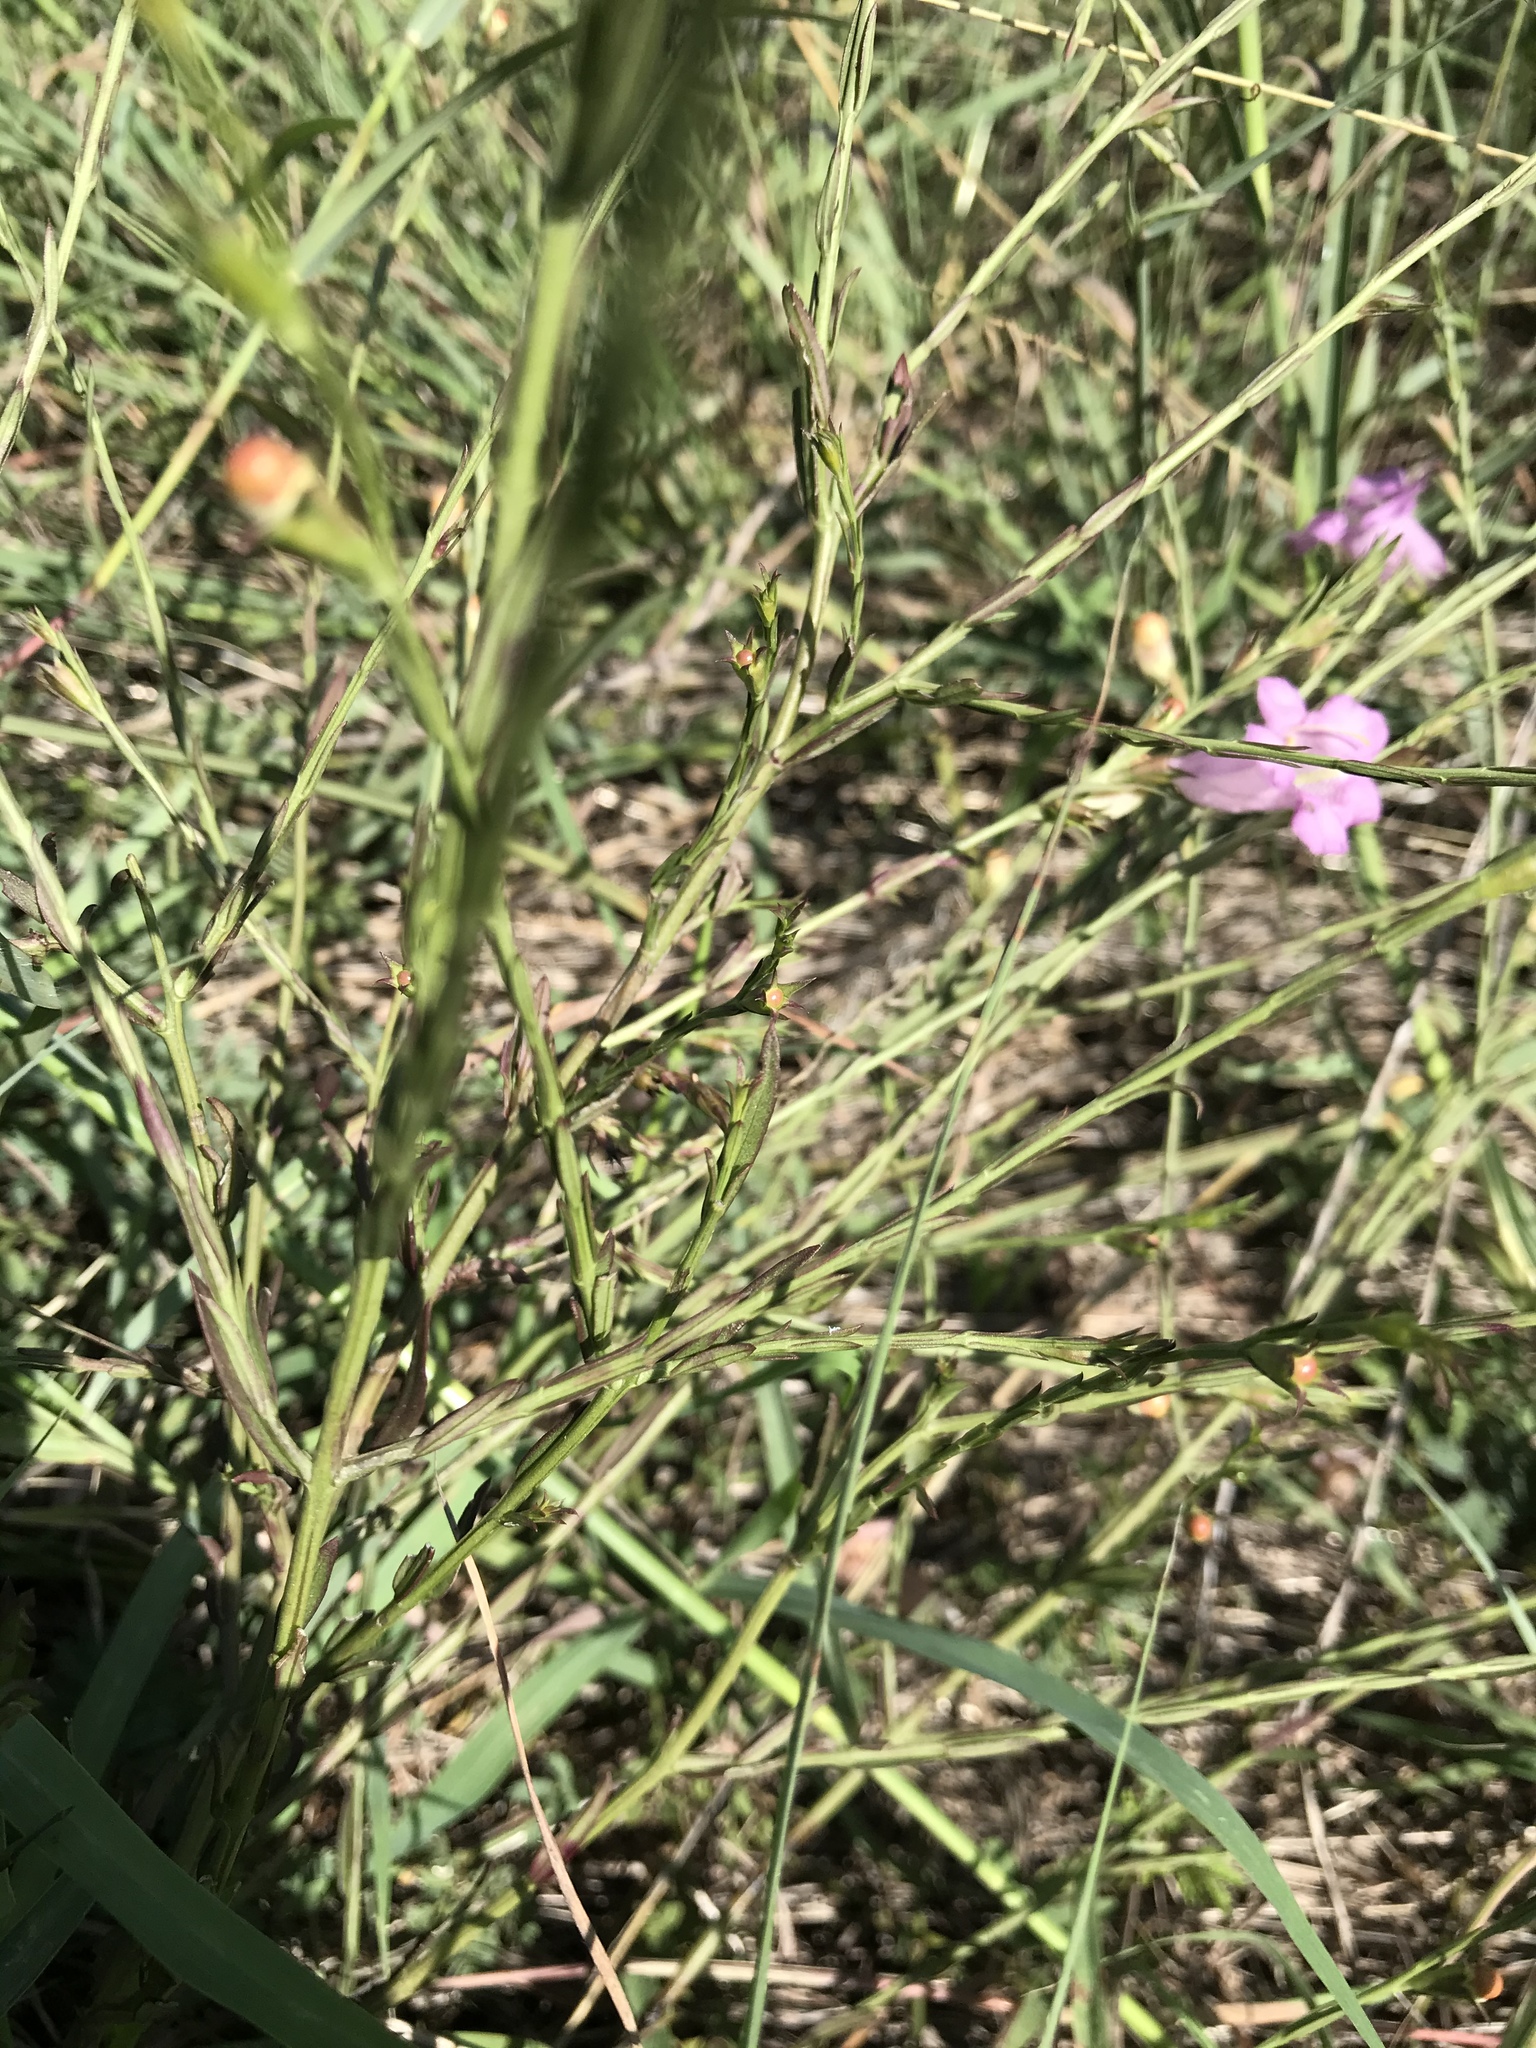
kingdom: Plantae
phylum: Tracheophyta
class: Magnoliopsida
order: Lamiales
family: Orobanchaceae
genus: Agalinis
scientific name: Agalinis heterophylla
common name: Prairie agalinis
